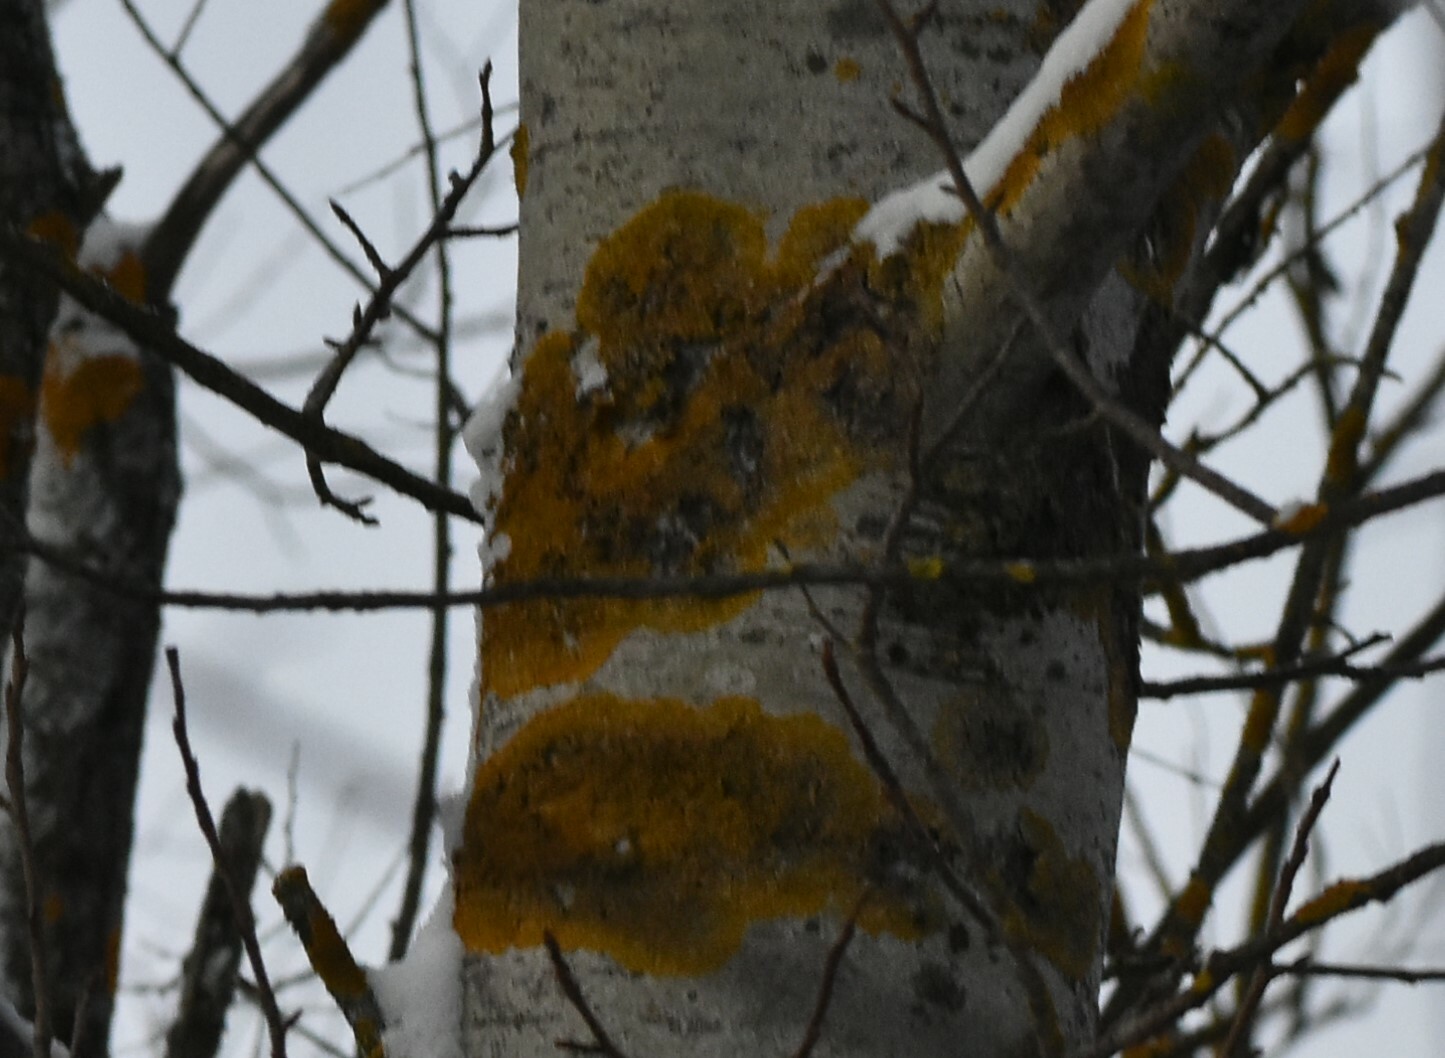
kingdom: Fungi
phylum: Ascomycota
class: Lecanoromycetes
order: Teloschistales
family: Teloschistaceae
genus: Xanthoria
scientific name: Xanthoria parietina
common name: Common orange lichen
